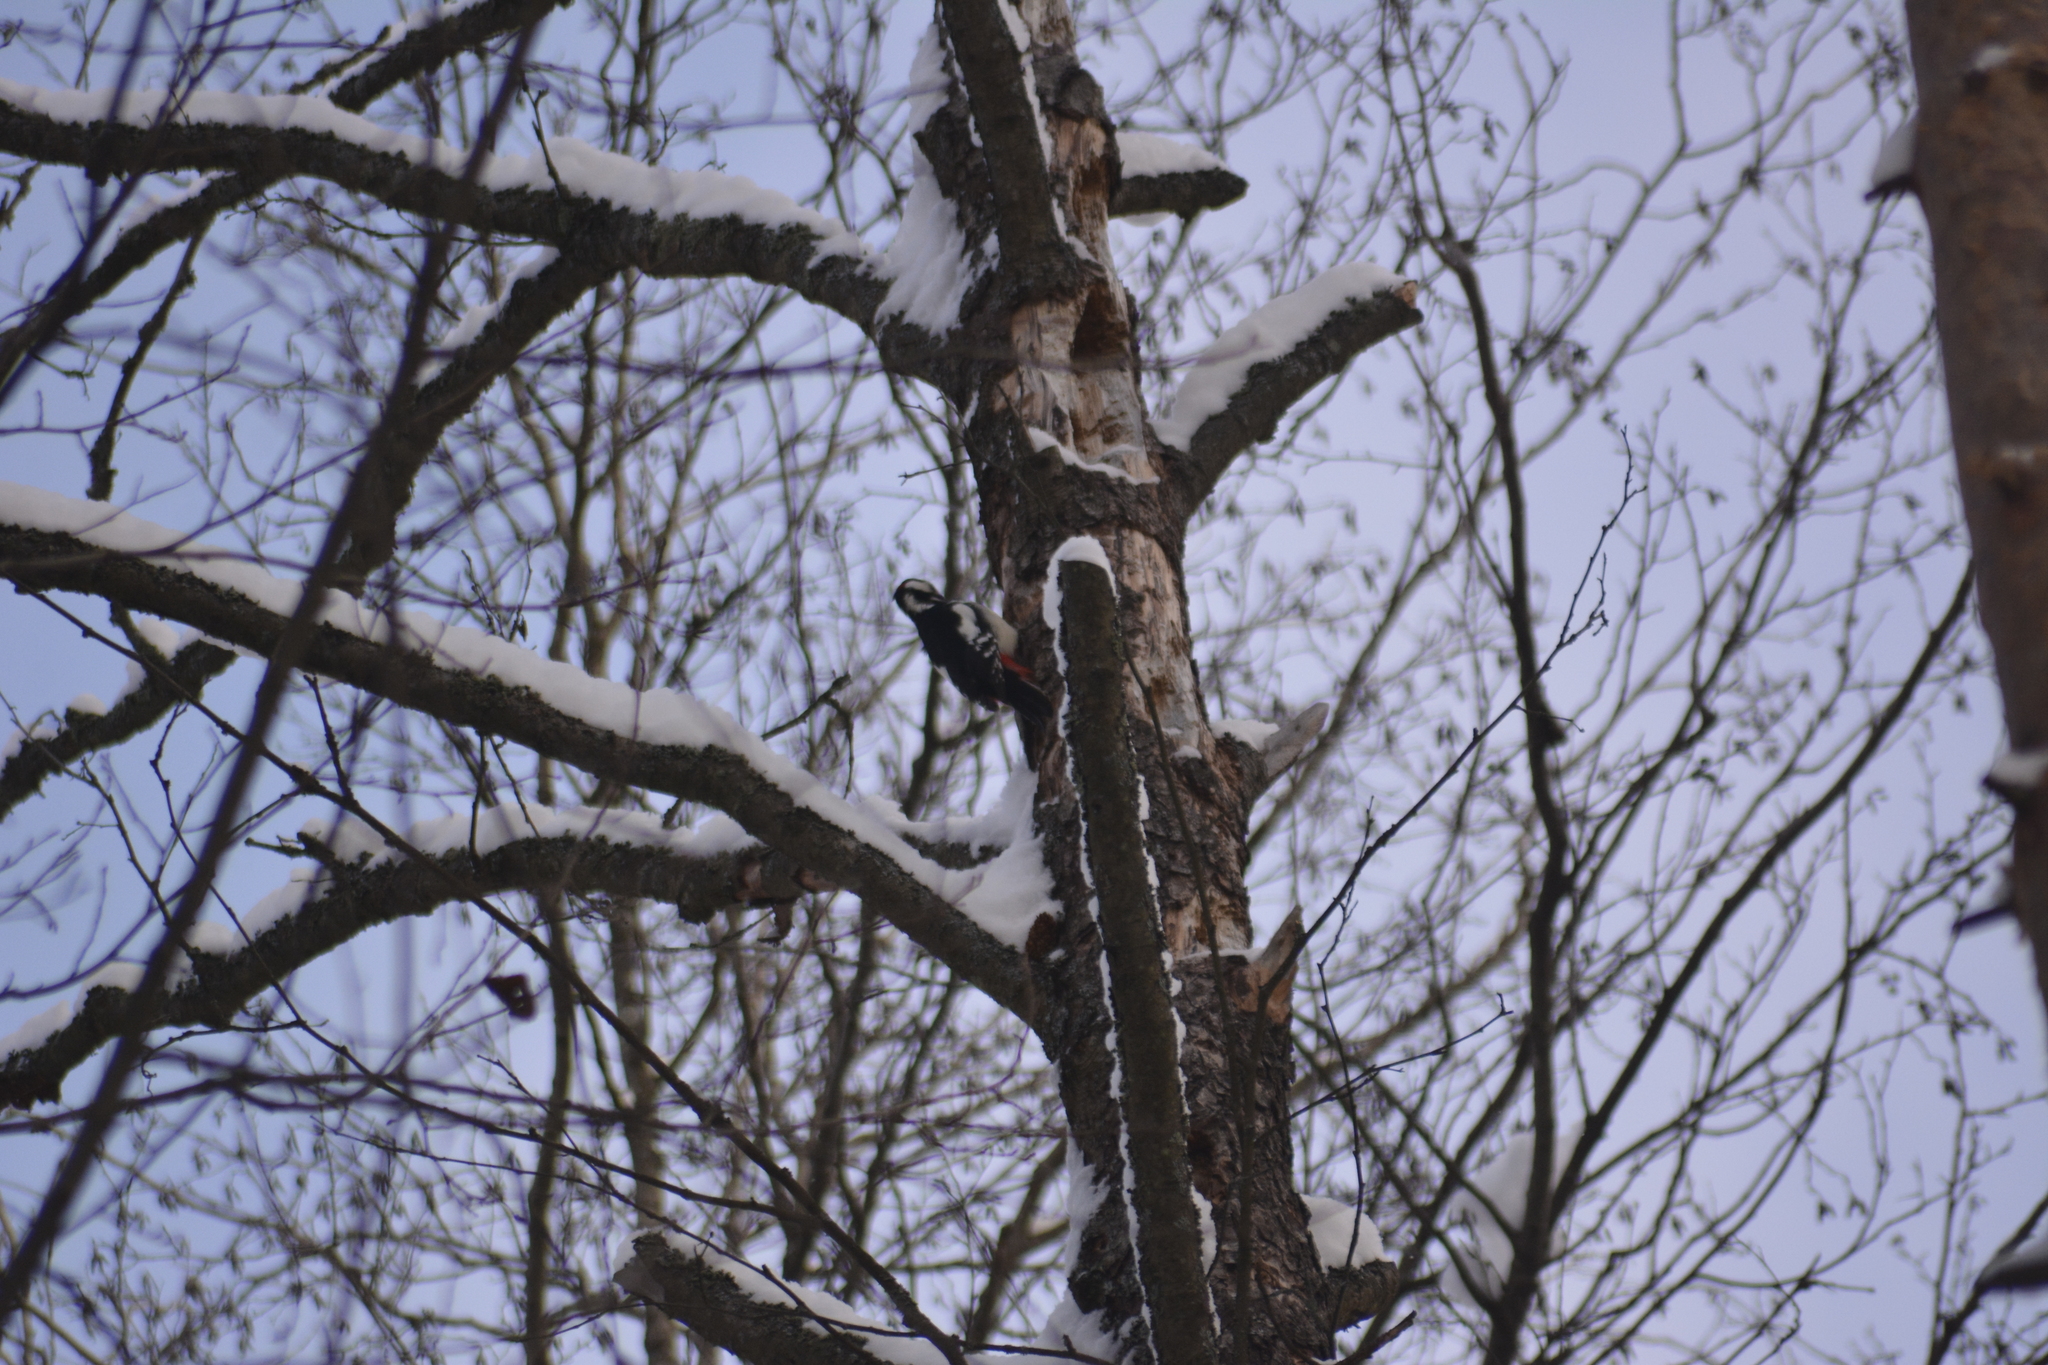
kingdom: Animalia
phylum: Chordata
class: Aves
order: Piciformes
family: Picidae
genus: Dendrocopos
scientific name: Dendrocopos major
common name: Great spotted woodpecker
